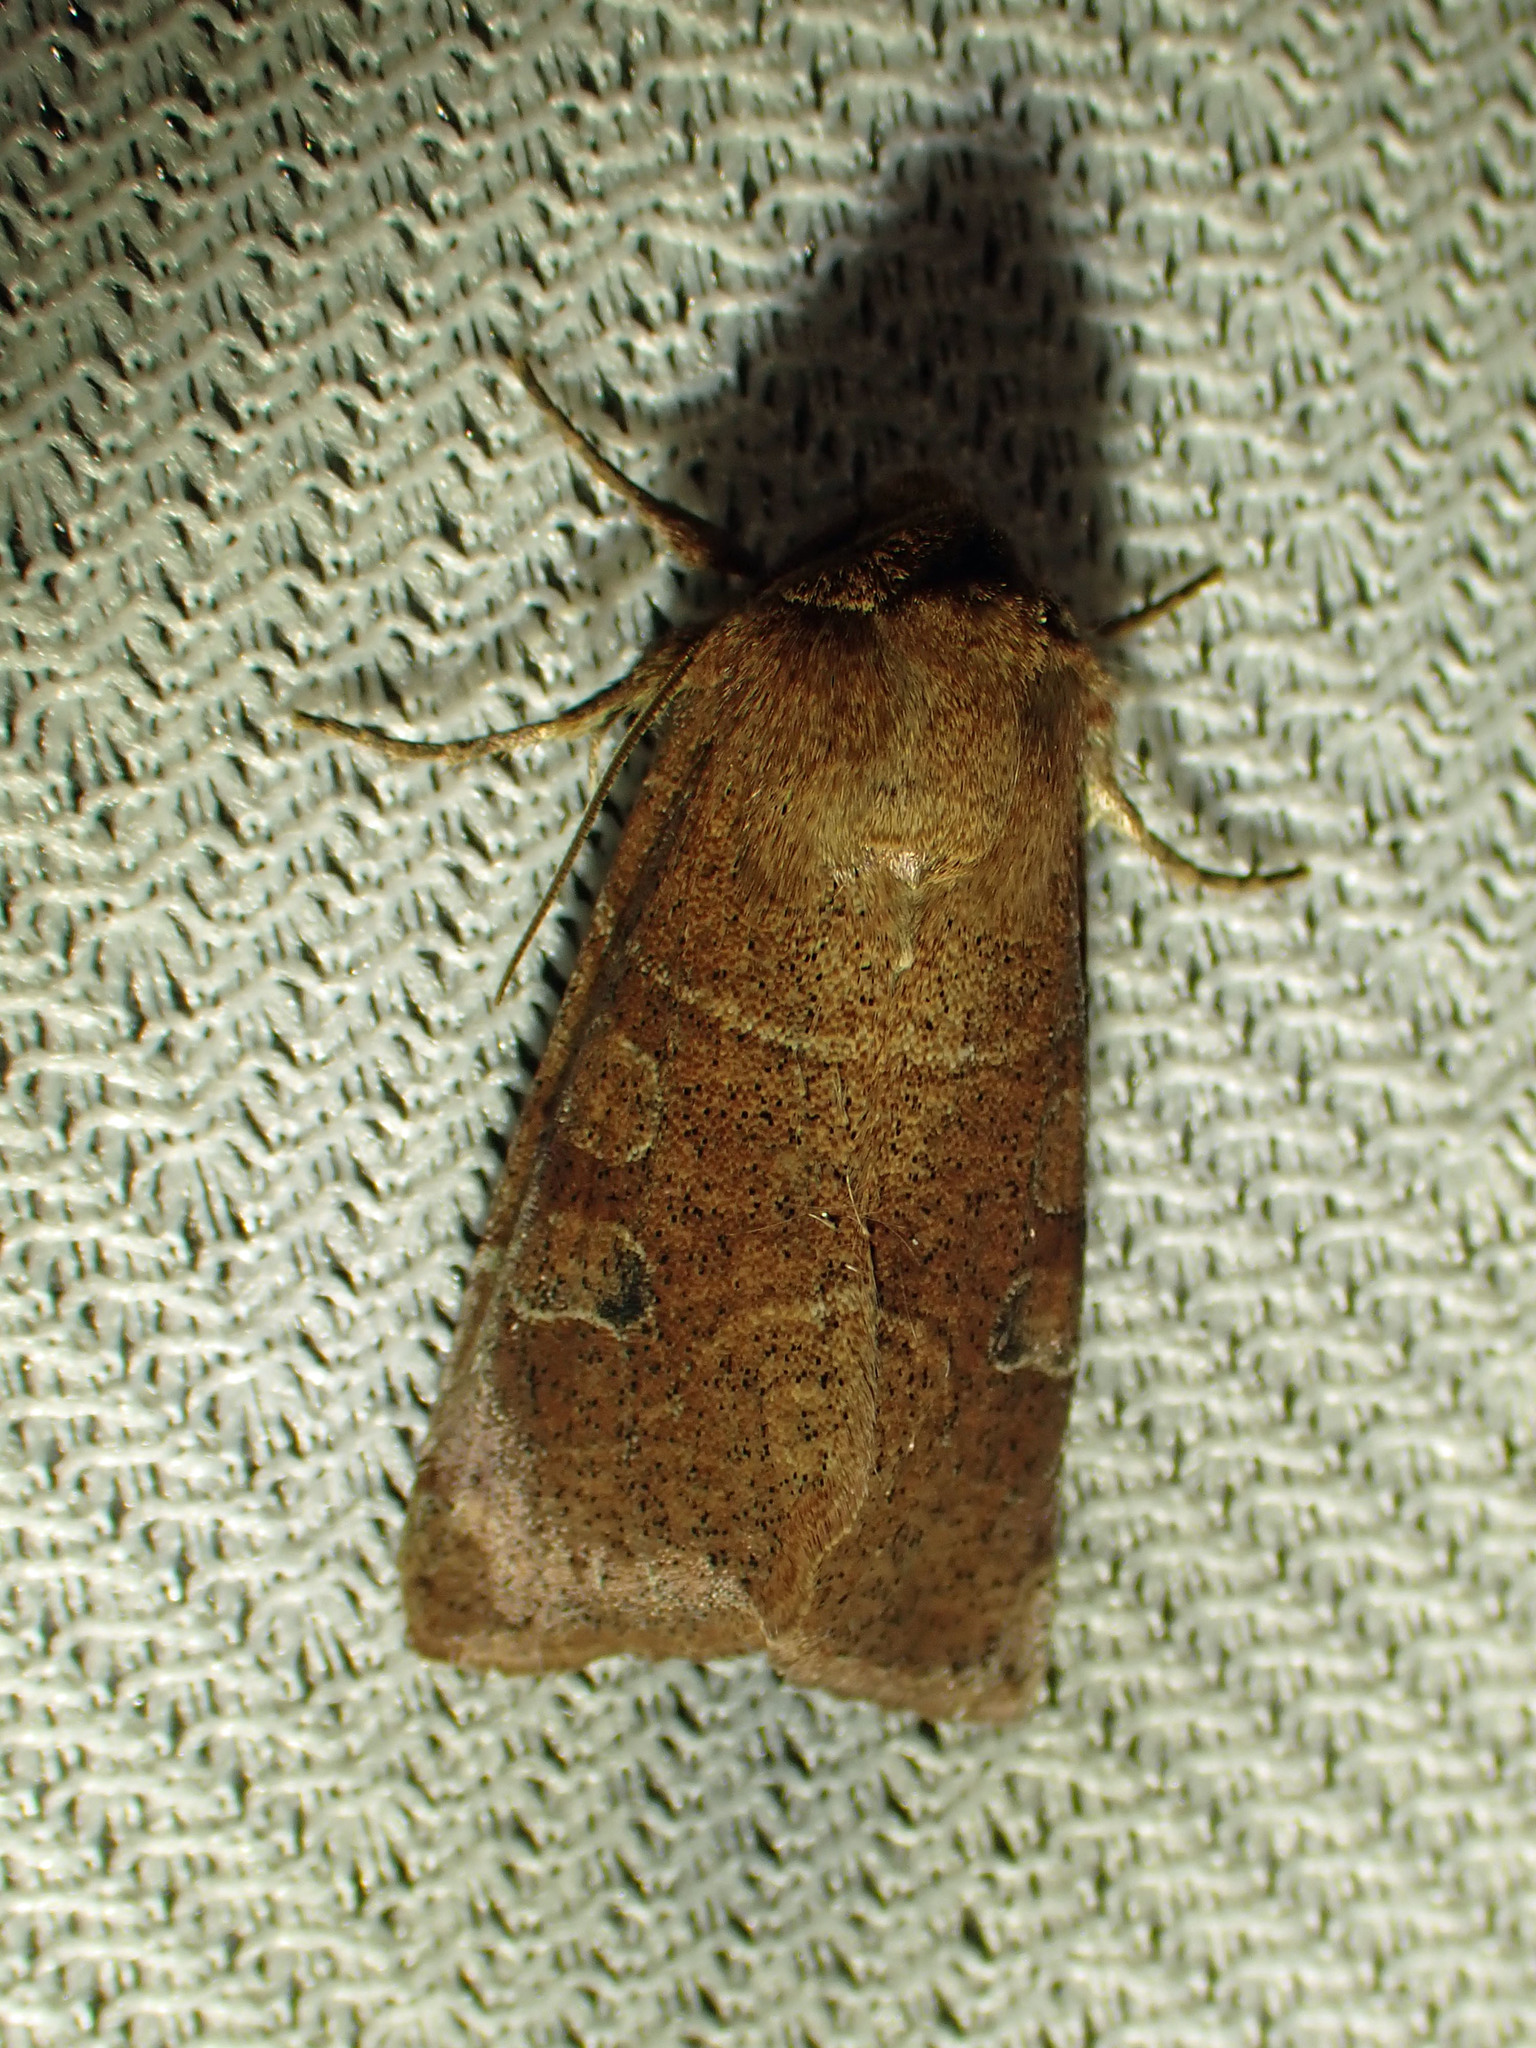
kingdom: Animalia
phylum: Arthropoda
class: Insecta
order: Lepidoptera
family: Noctuidae
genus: Crocigrapha
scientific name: Crocigrapha normani
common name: Norman's quaker
